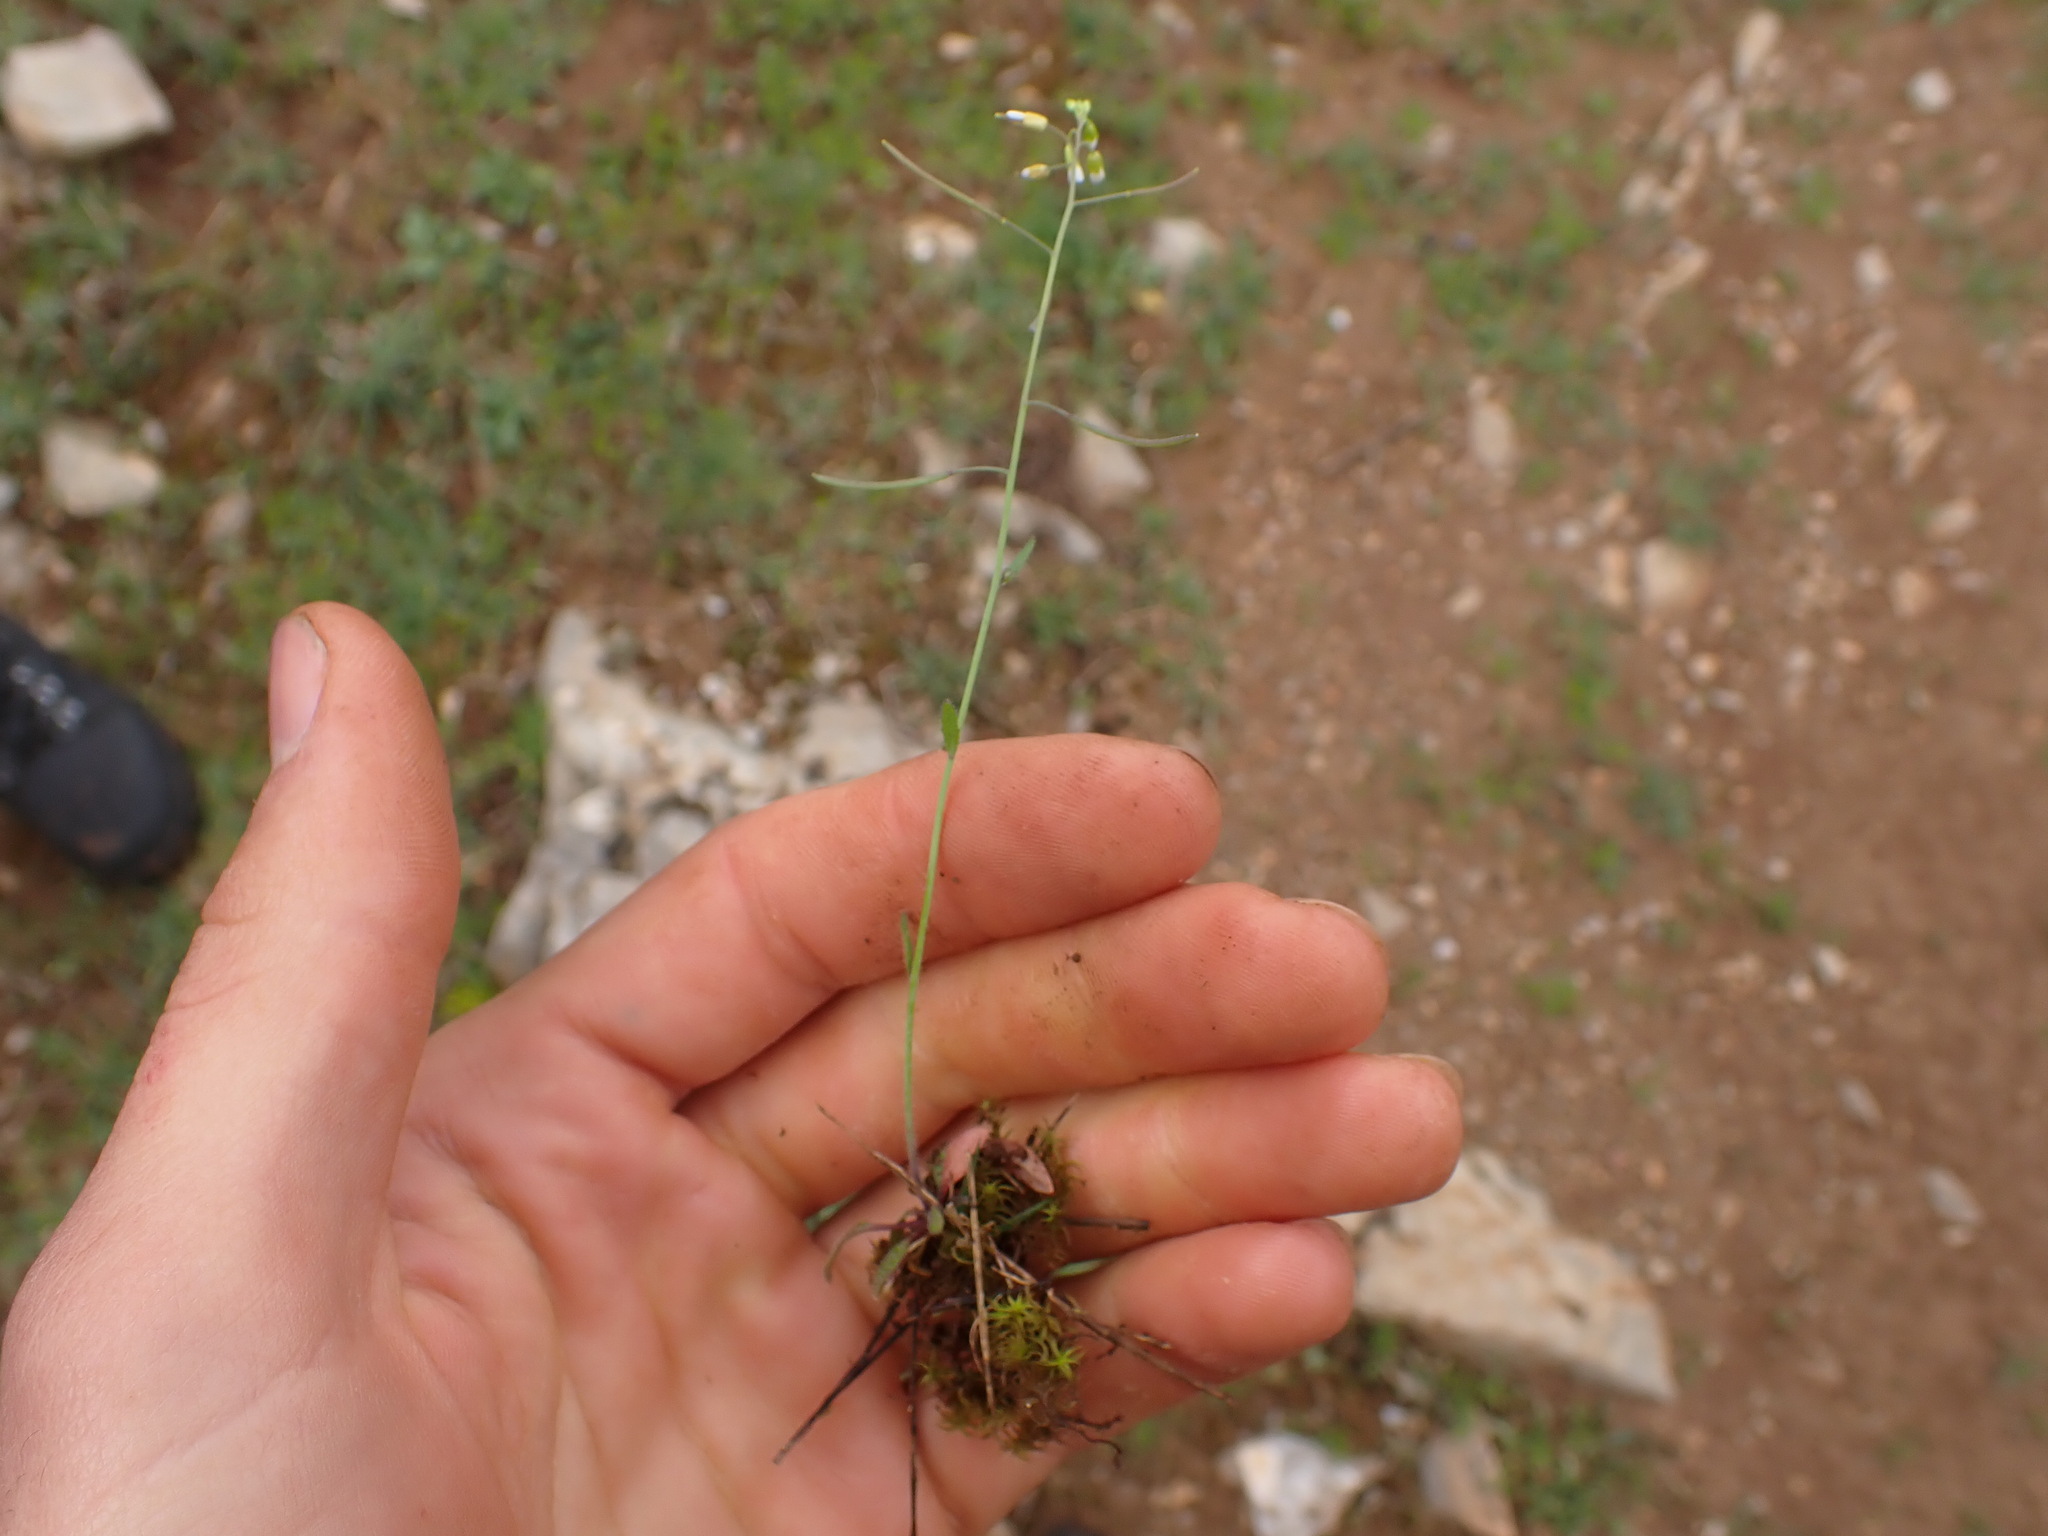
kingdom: Plantae
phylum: Tracheophyta
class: Magnoliopsida
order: Brassicales
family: Brassicaceae
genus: Arabidopsis
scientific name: Arabidopsis thaliana
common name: Thale cress
